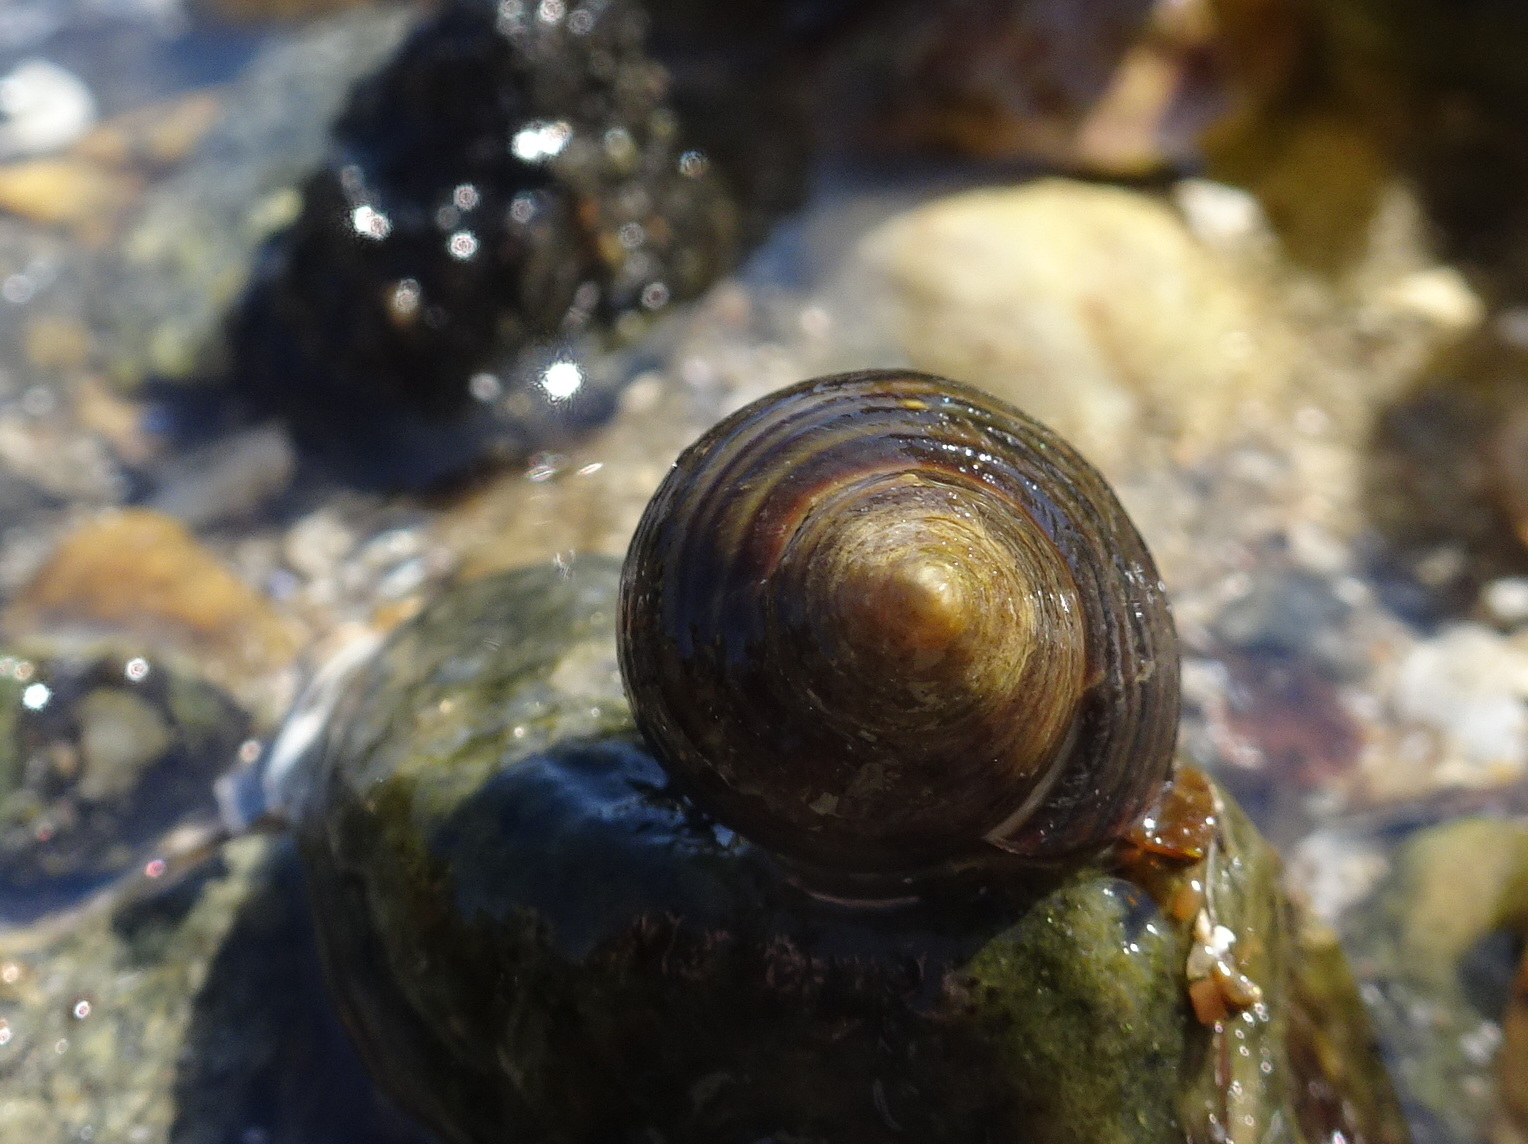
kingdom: Animalia
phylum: Mollusca
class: Gastropoda
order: Littorinimorpha
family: Littorinidae
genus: Littorina
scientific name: Littorina littorea
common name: Common periwinkle
